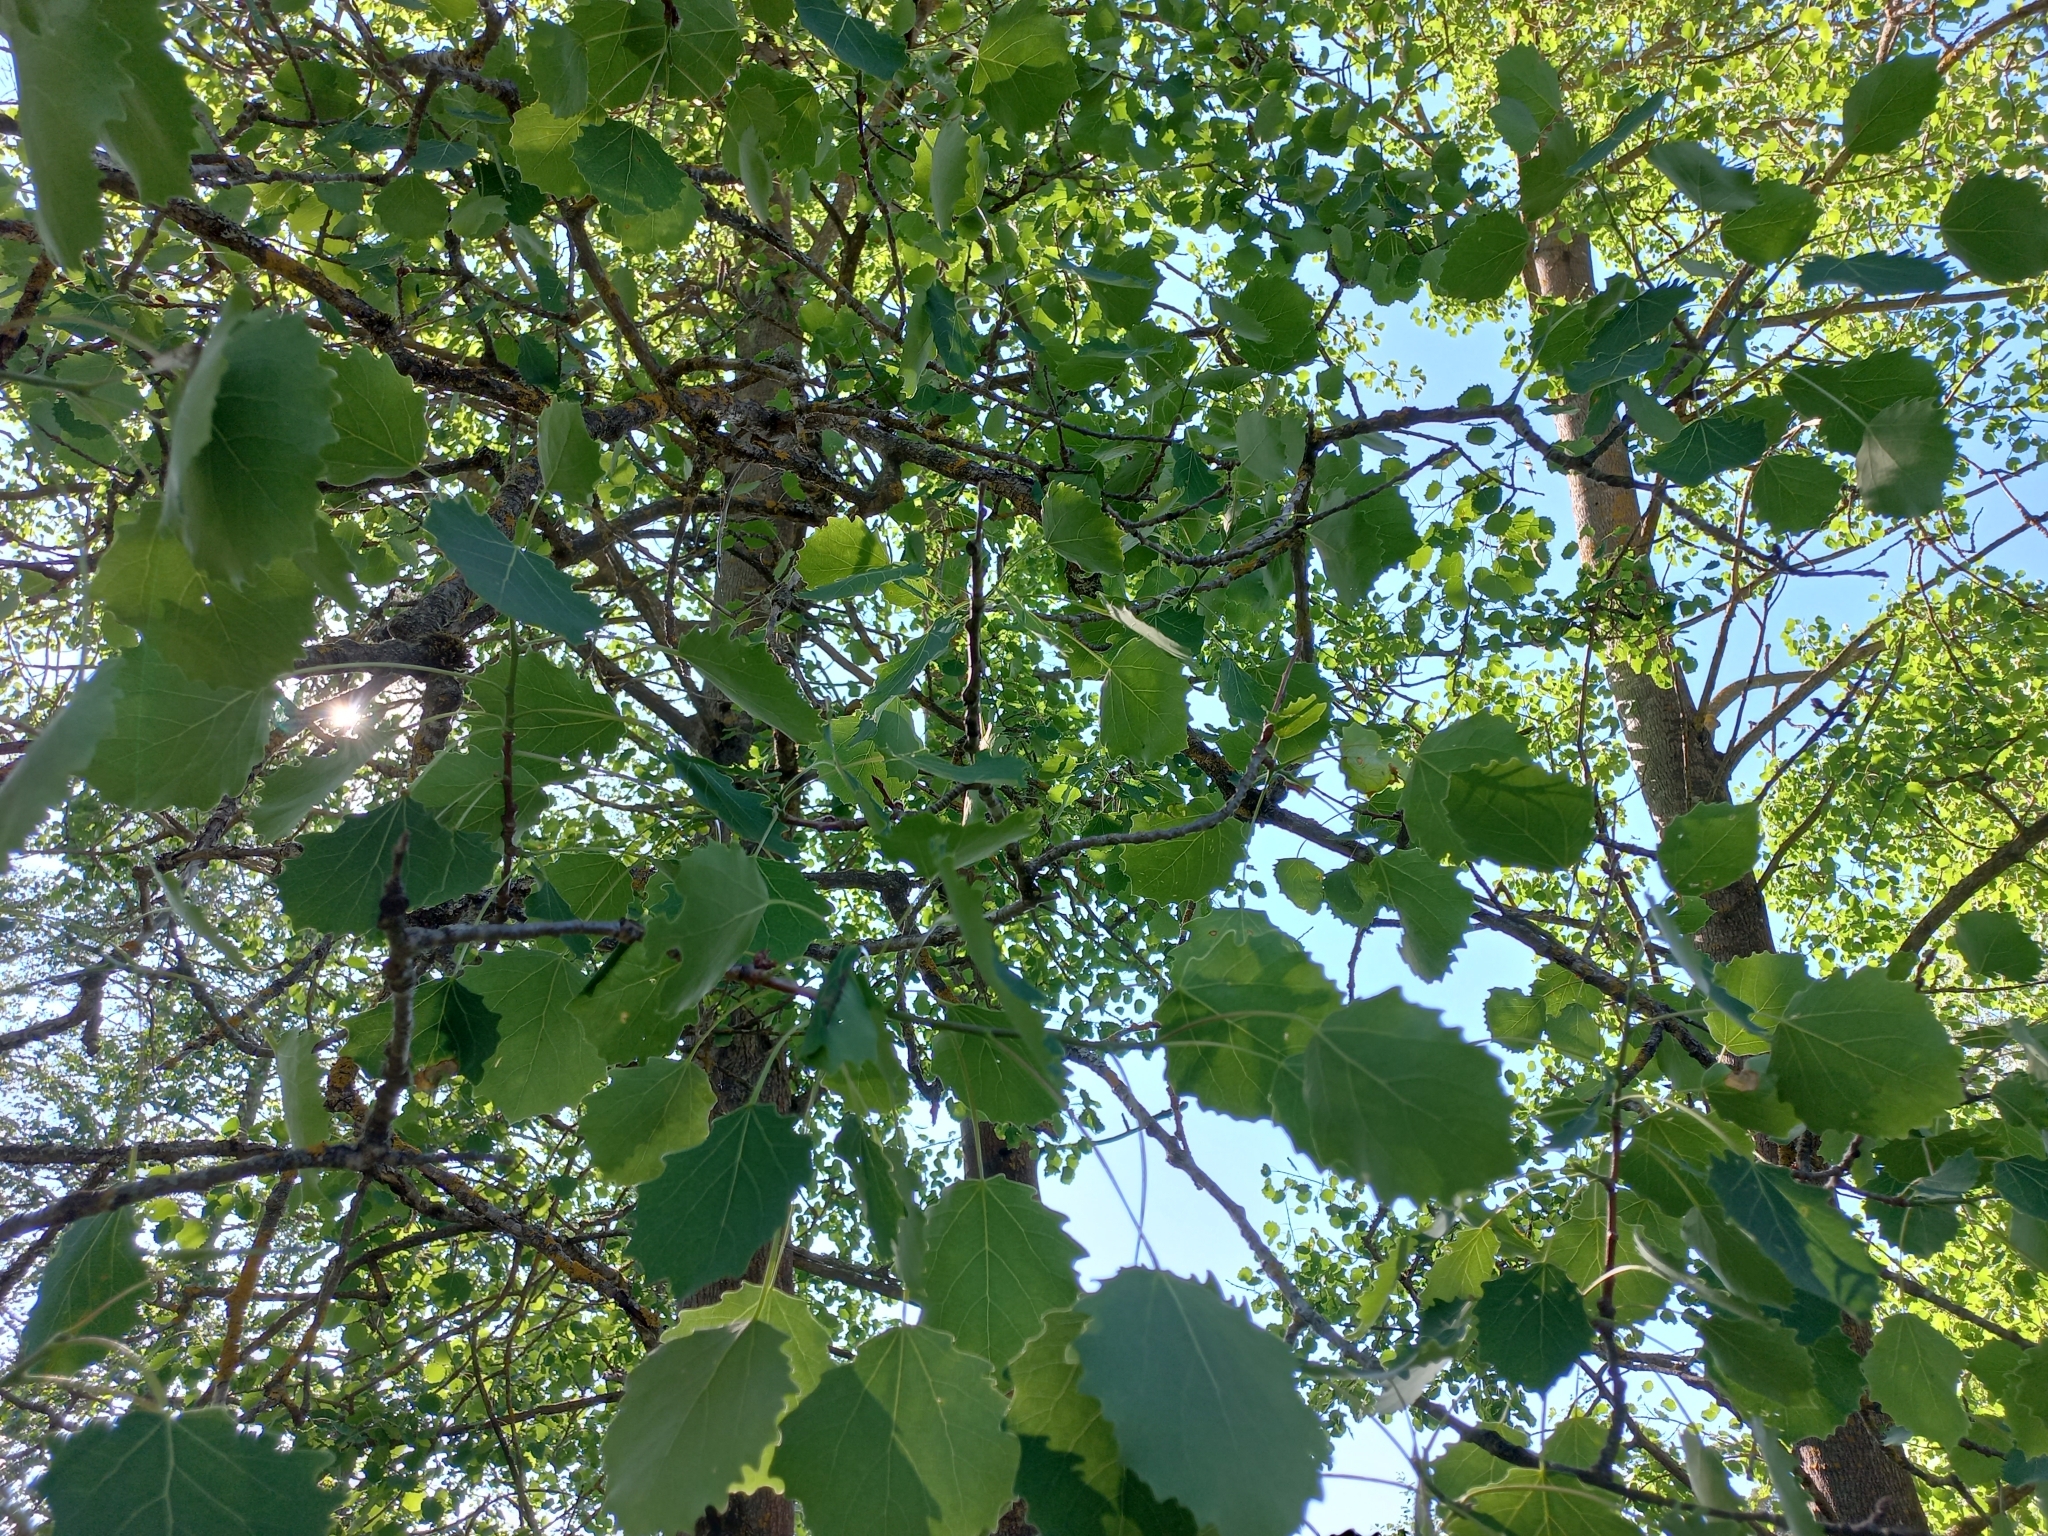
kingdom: Plantae
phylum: Tracheophyta
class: Magnoliopsida
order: Malpighiales
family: Salicaceae
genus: Populus
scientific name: Populus tremula
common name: European aspen
